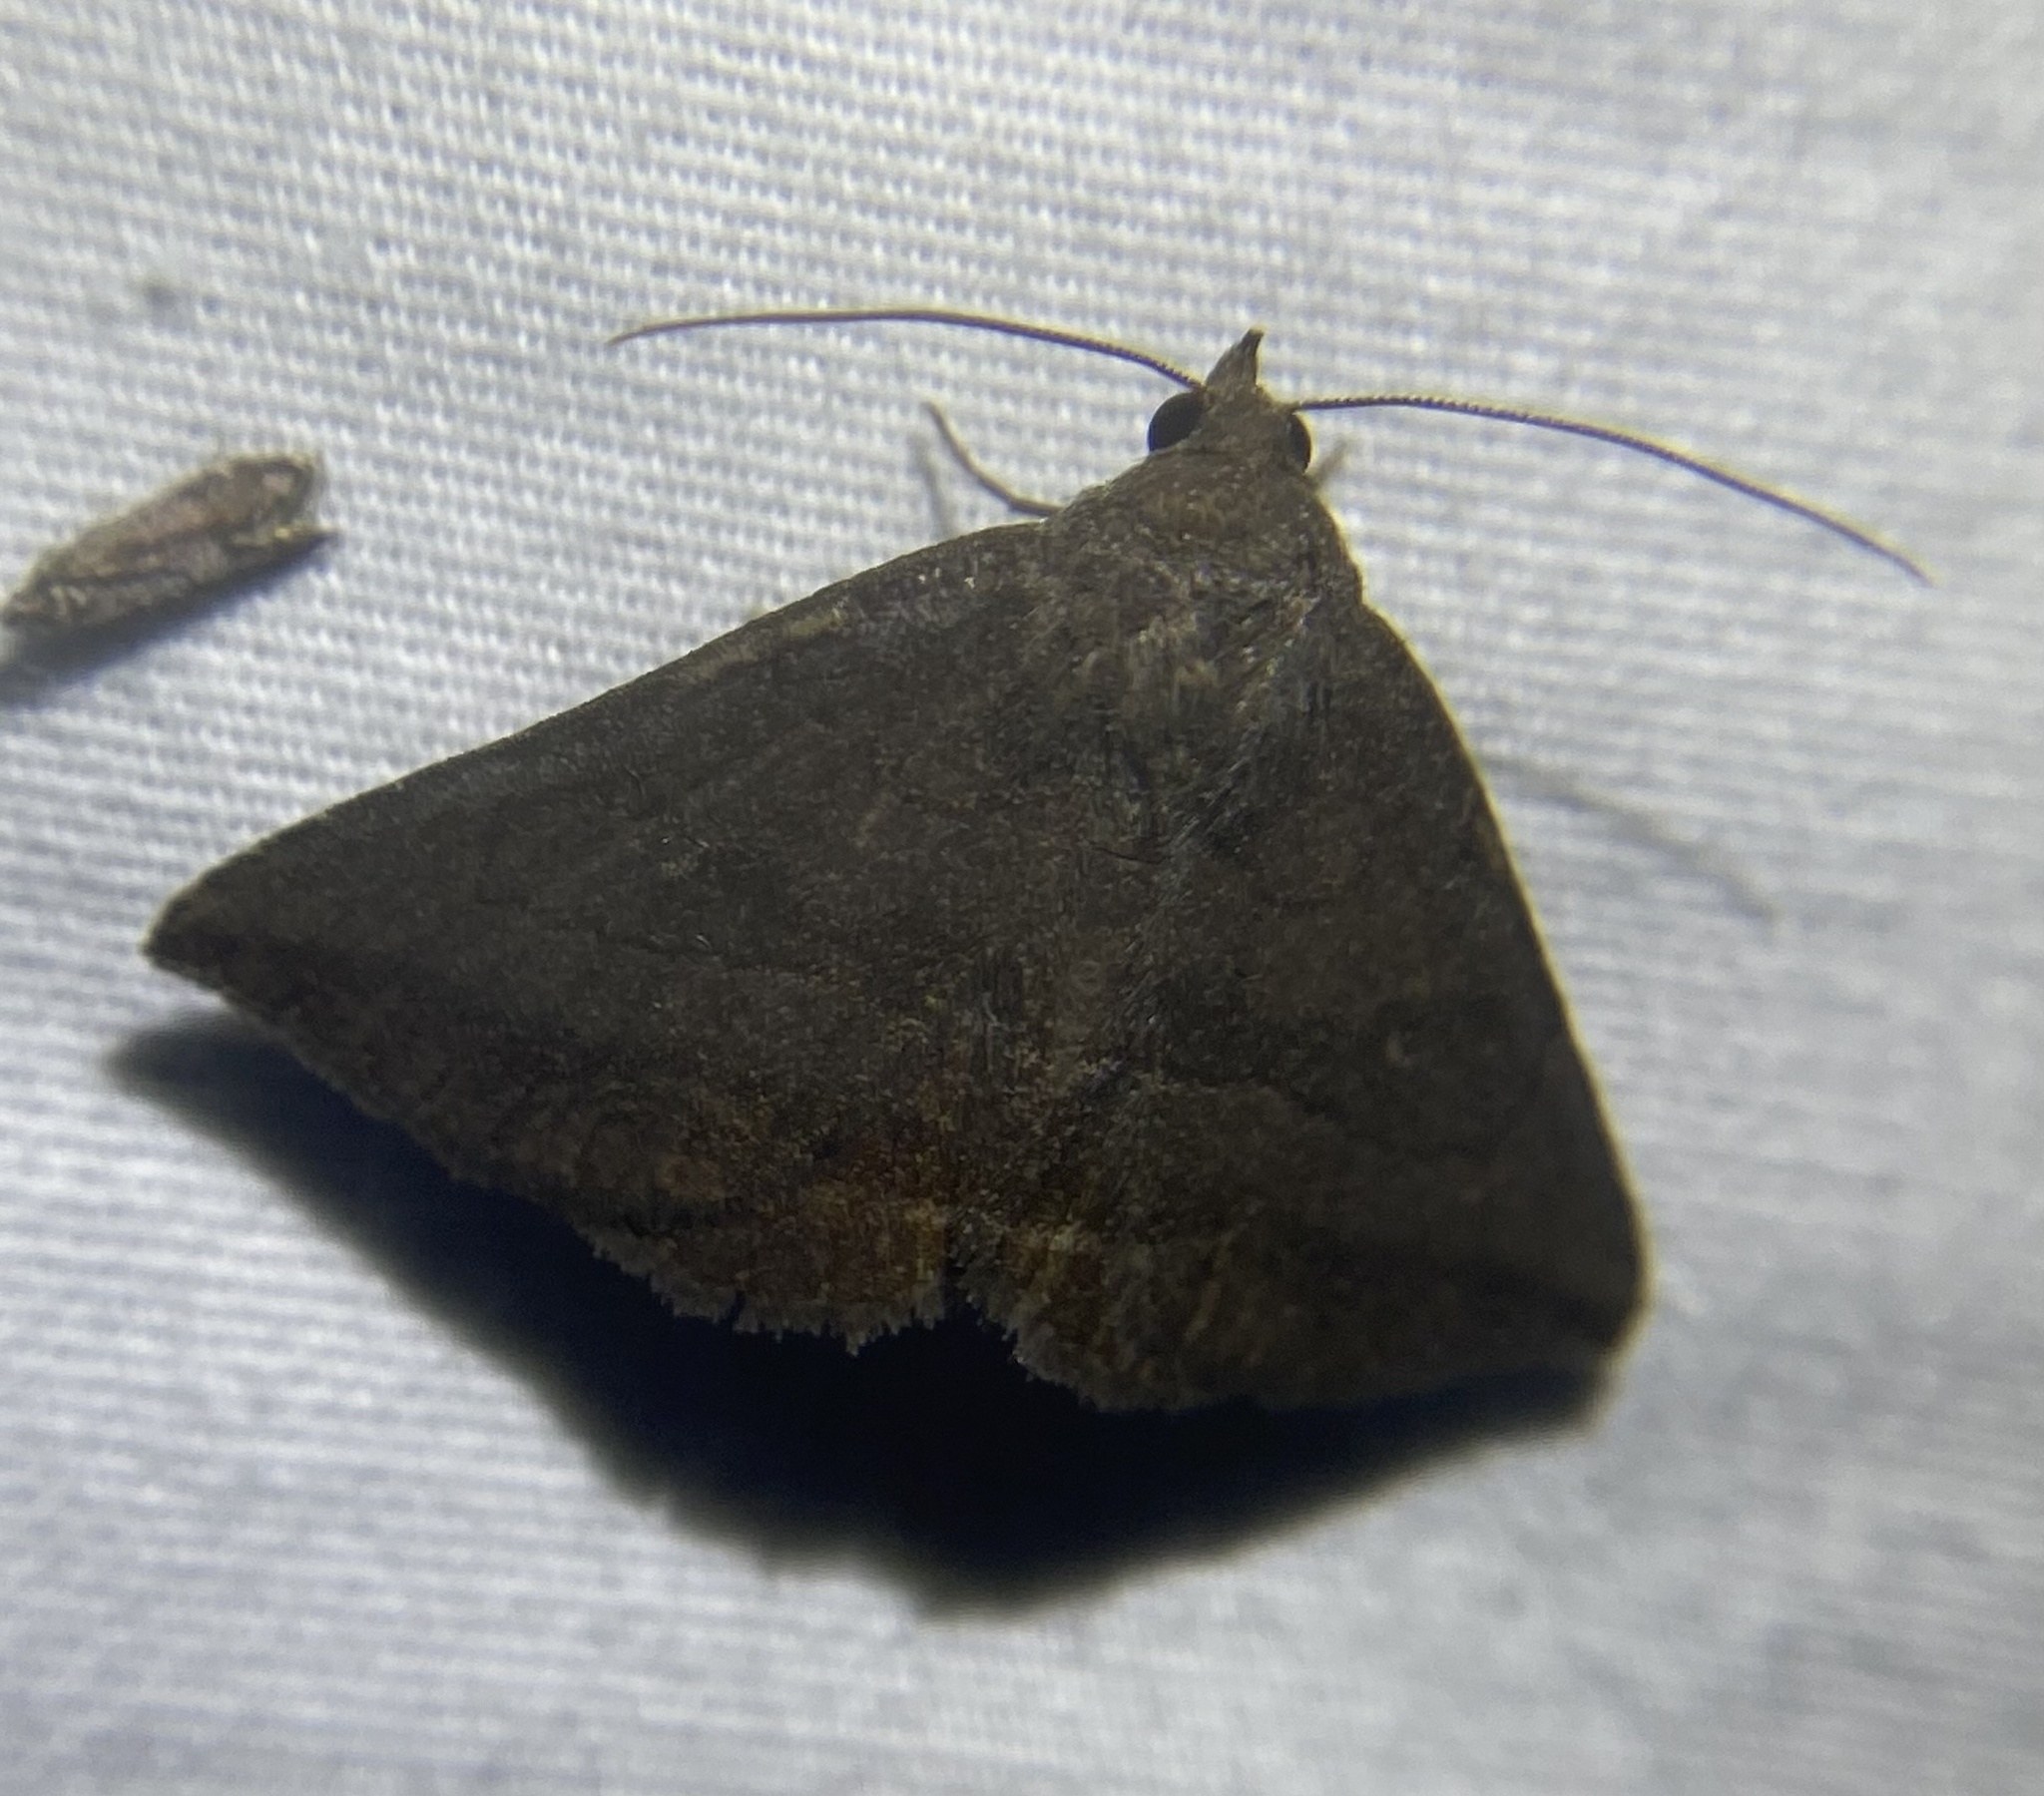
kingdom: Animalia
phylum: Arthropoda
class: Insecta
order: Lepidoptera
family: Erebidae
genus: Lesmone
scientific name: Lesmone detrahens
